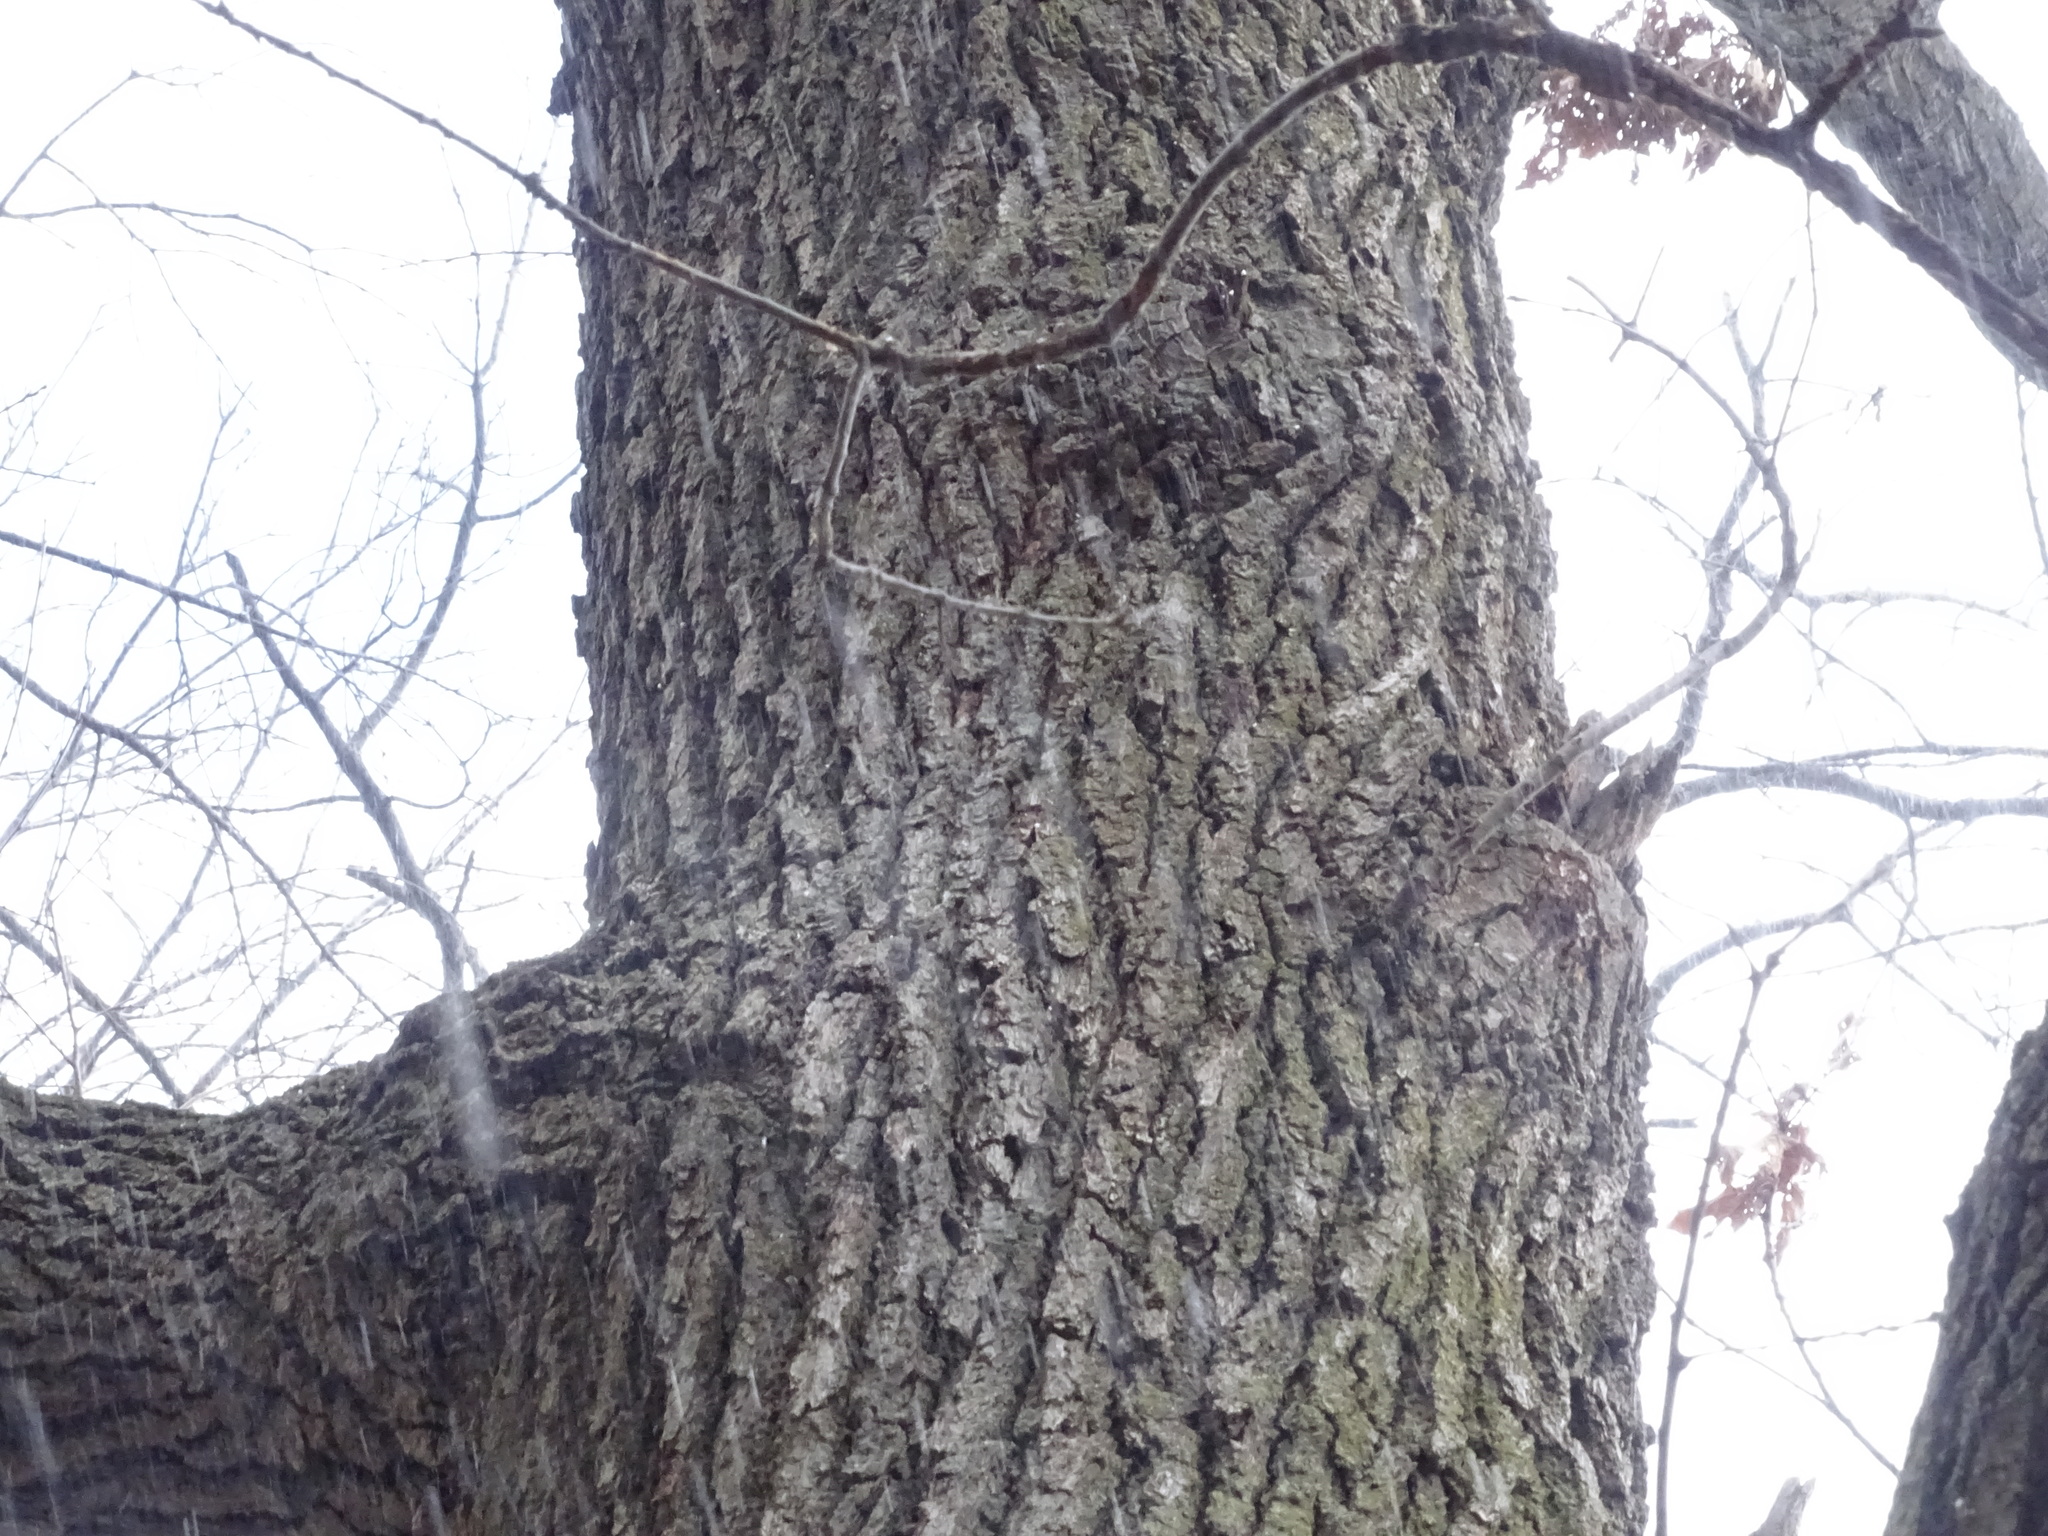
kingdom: Plantae
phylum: Tracheophyta
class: Magnoliopsida
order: Fagales
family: Fagaceae
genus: Quercus
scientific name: Quercus velutina
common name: Black oak
